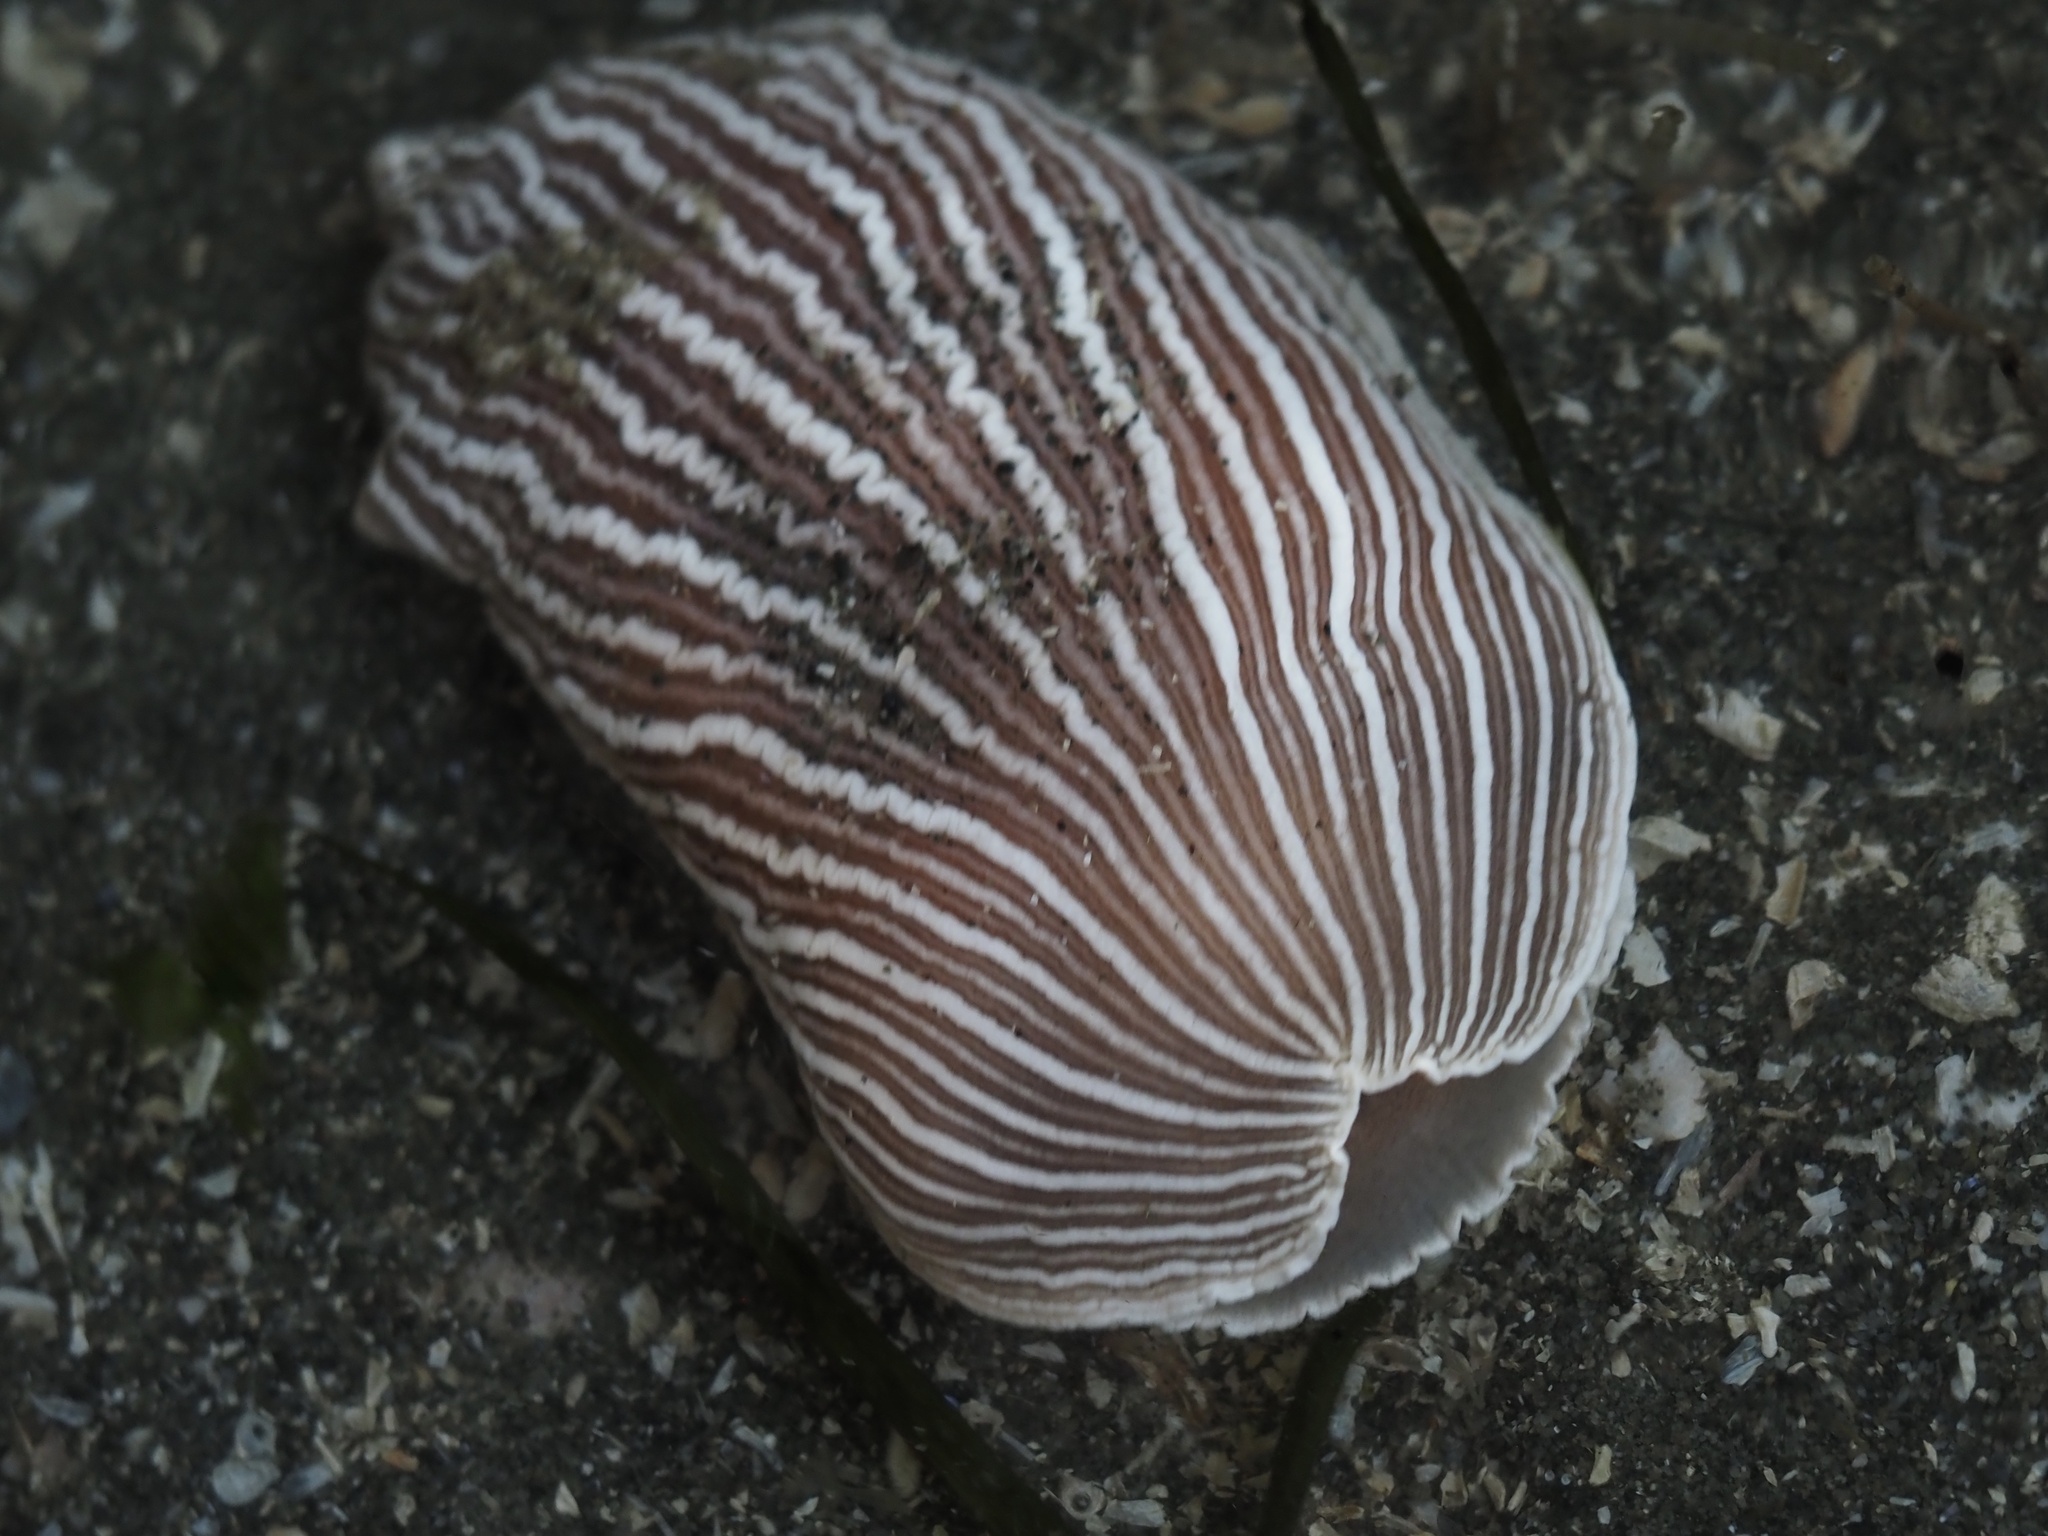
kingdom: Animalia
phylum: Mollusca
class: Gastropoda
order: Nudibranchia
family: Arminidae
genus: Armina
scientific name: Armina californica
